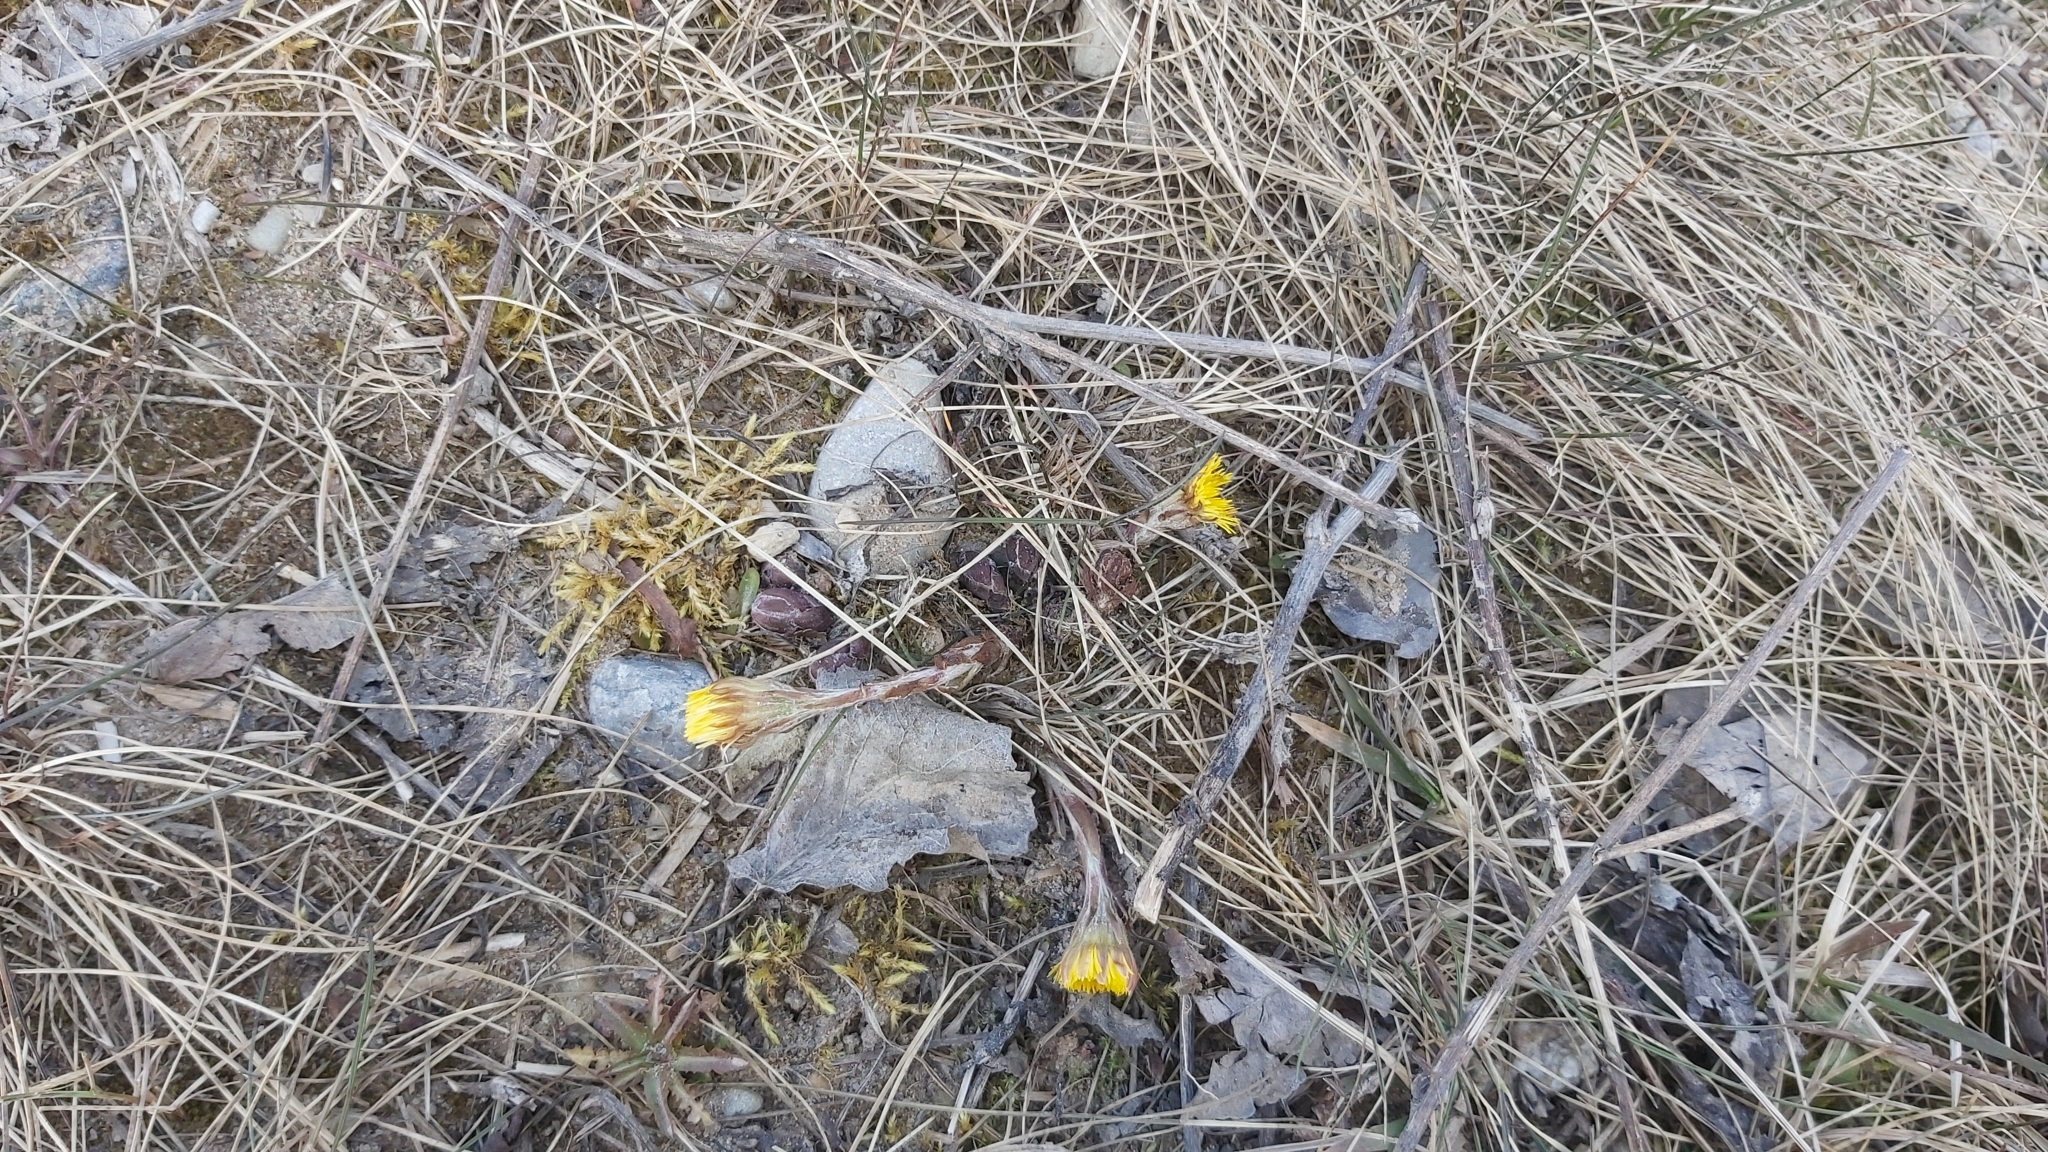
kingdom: Plantae
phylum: Tracheophyta
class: Magnoliopsida
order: Asterales
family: Asteraceae
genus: Tussilago
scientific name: Tussilago farfara
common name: Coltsfoot
